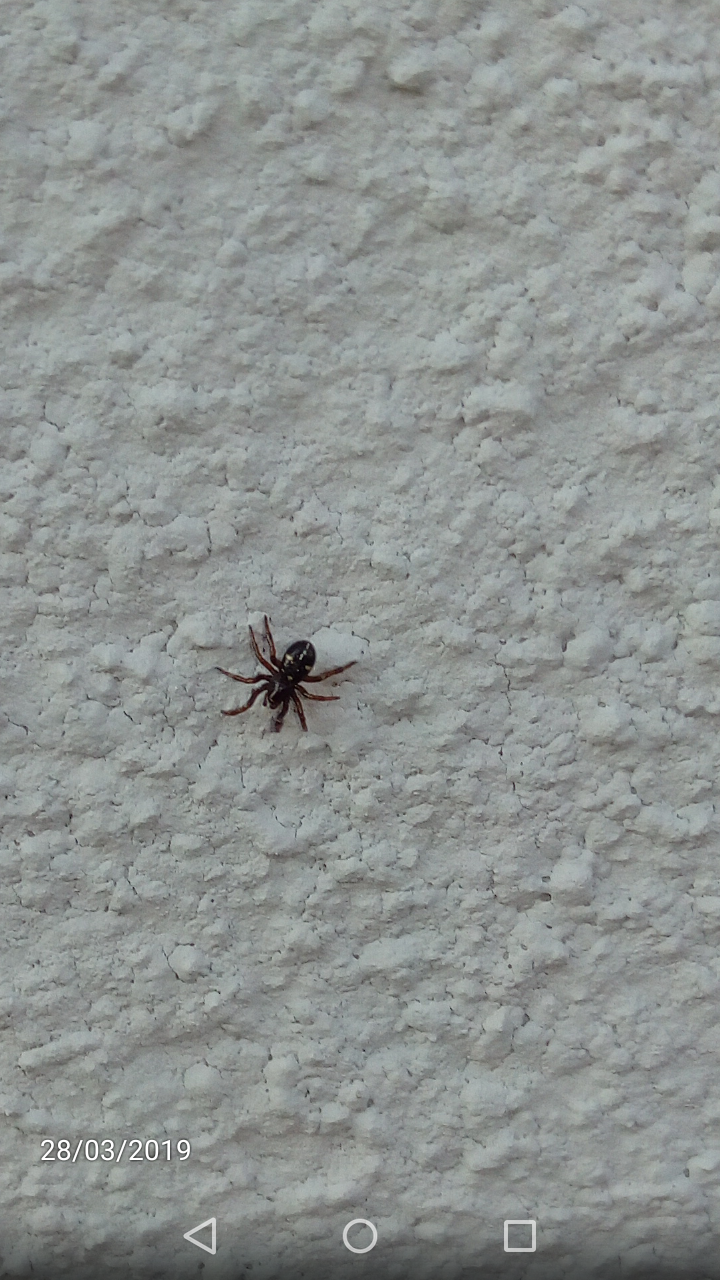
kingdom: Animalia
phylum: Arthropoda
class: Arachnida
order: Araneae
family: Theridiidae
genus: Asagena
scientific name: Asagena phalerata
